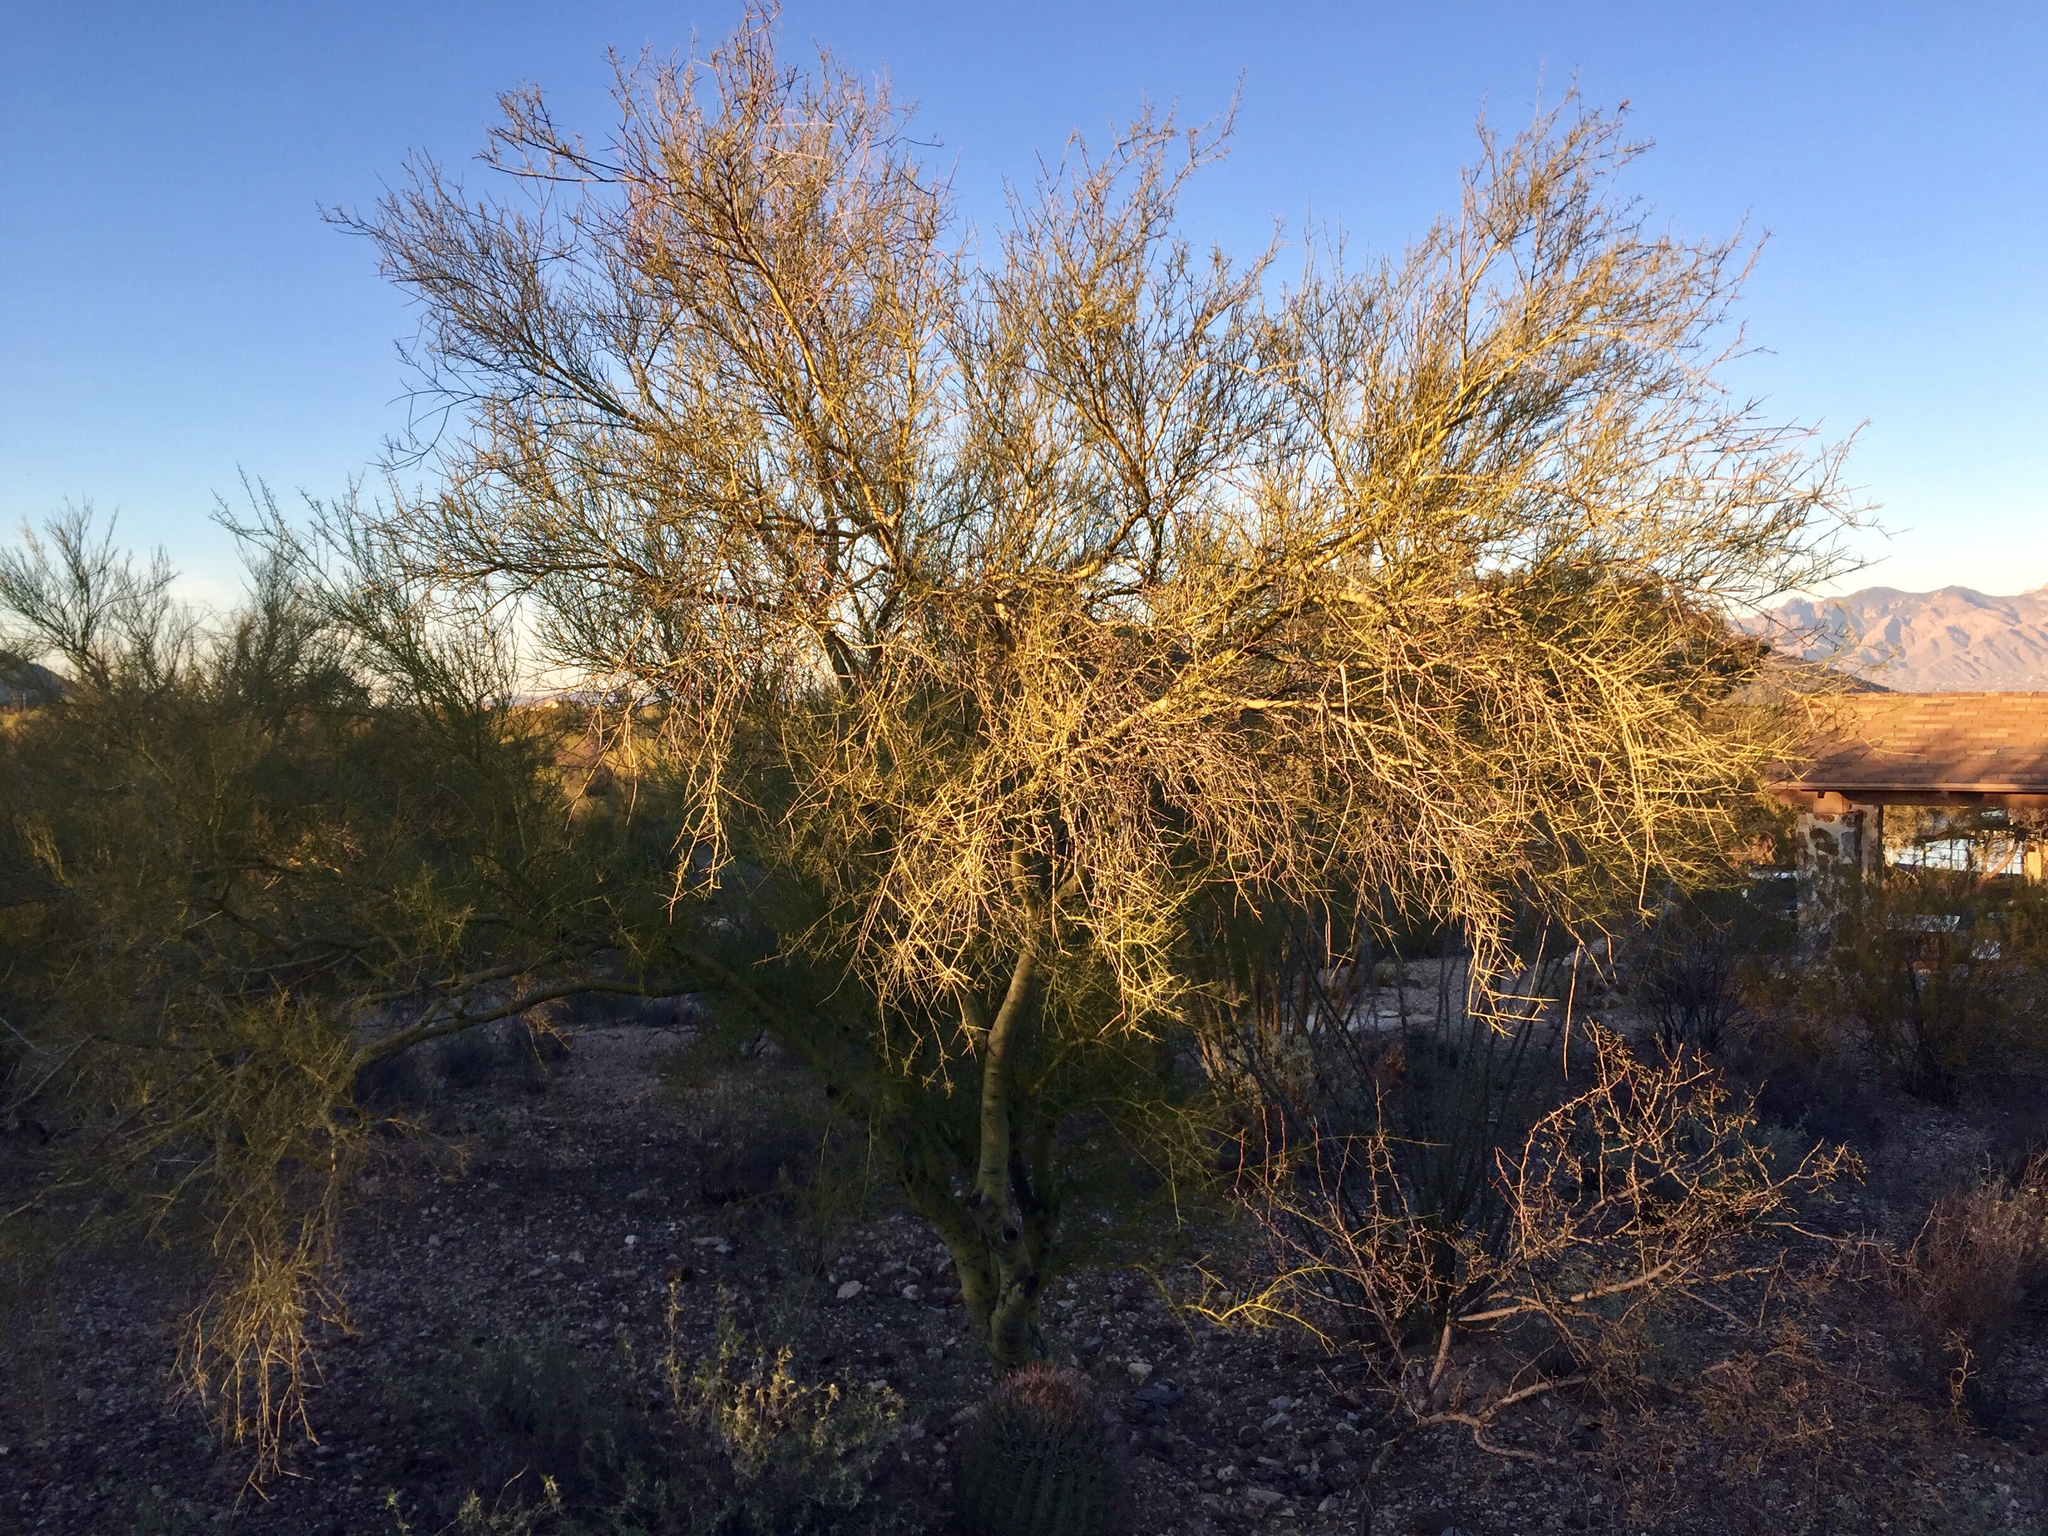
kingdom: Plantae
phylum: Tracheophyta
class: Magnoliopsida
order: Fabales
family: Fabaceae
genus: Parkinsonia
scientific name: Parkinsonia microphylla
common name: Yellow paloverde
